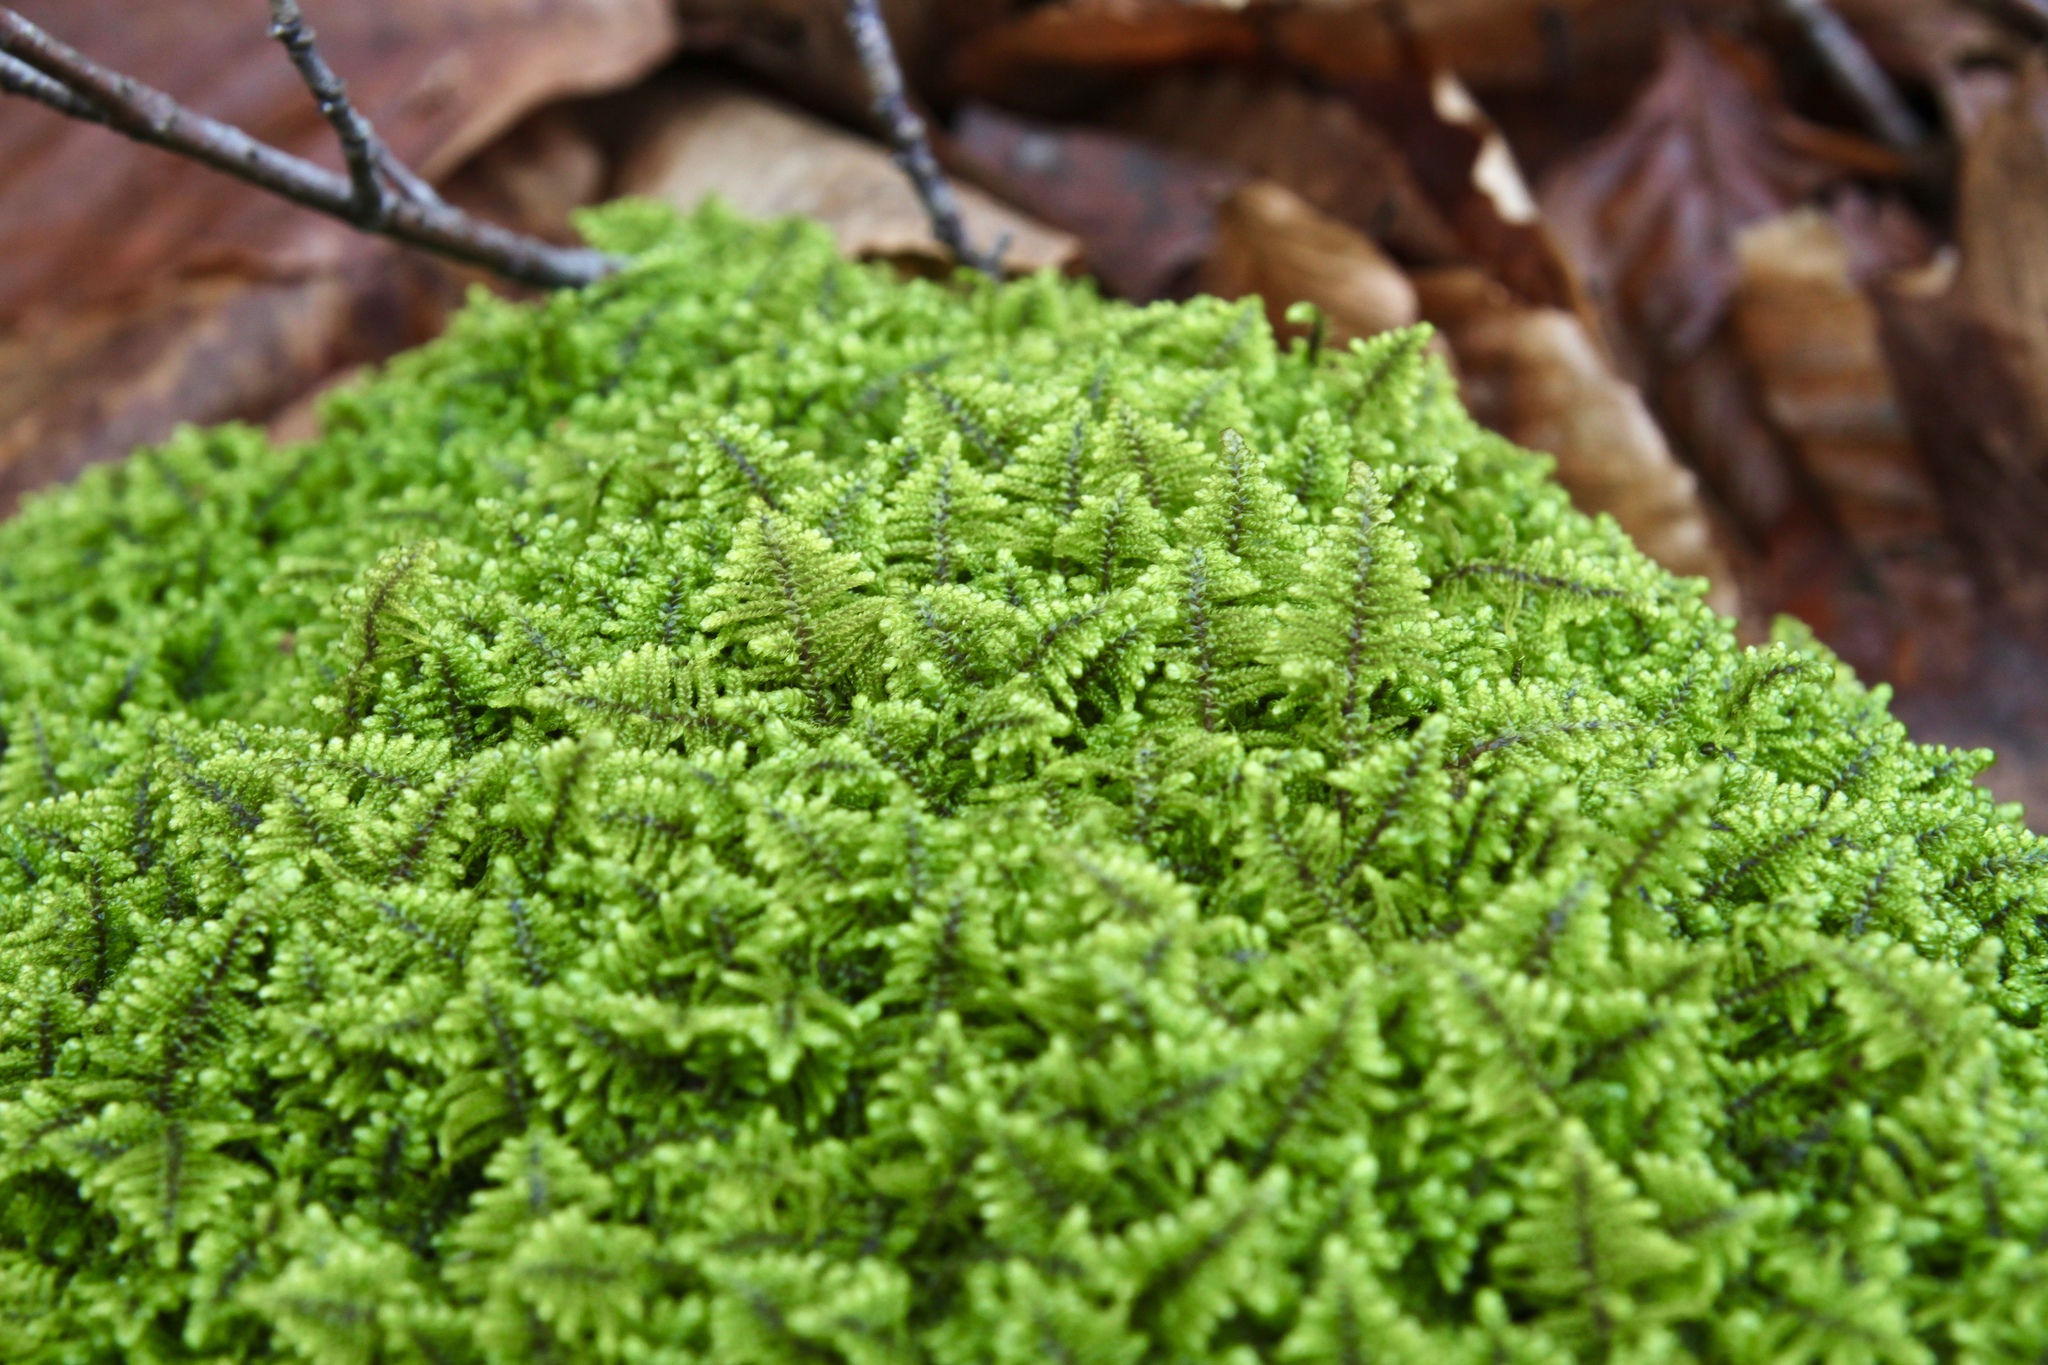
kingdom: Plantae
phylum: Bryophyta
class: Bryopsida
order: Hypnales
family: Callicladiaceae
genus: Callicladium
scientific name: Callicladium imponens
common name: Brocade moss
